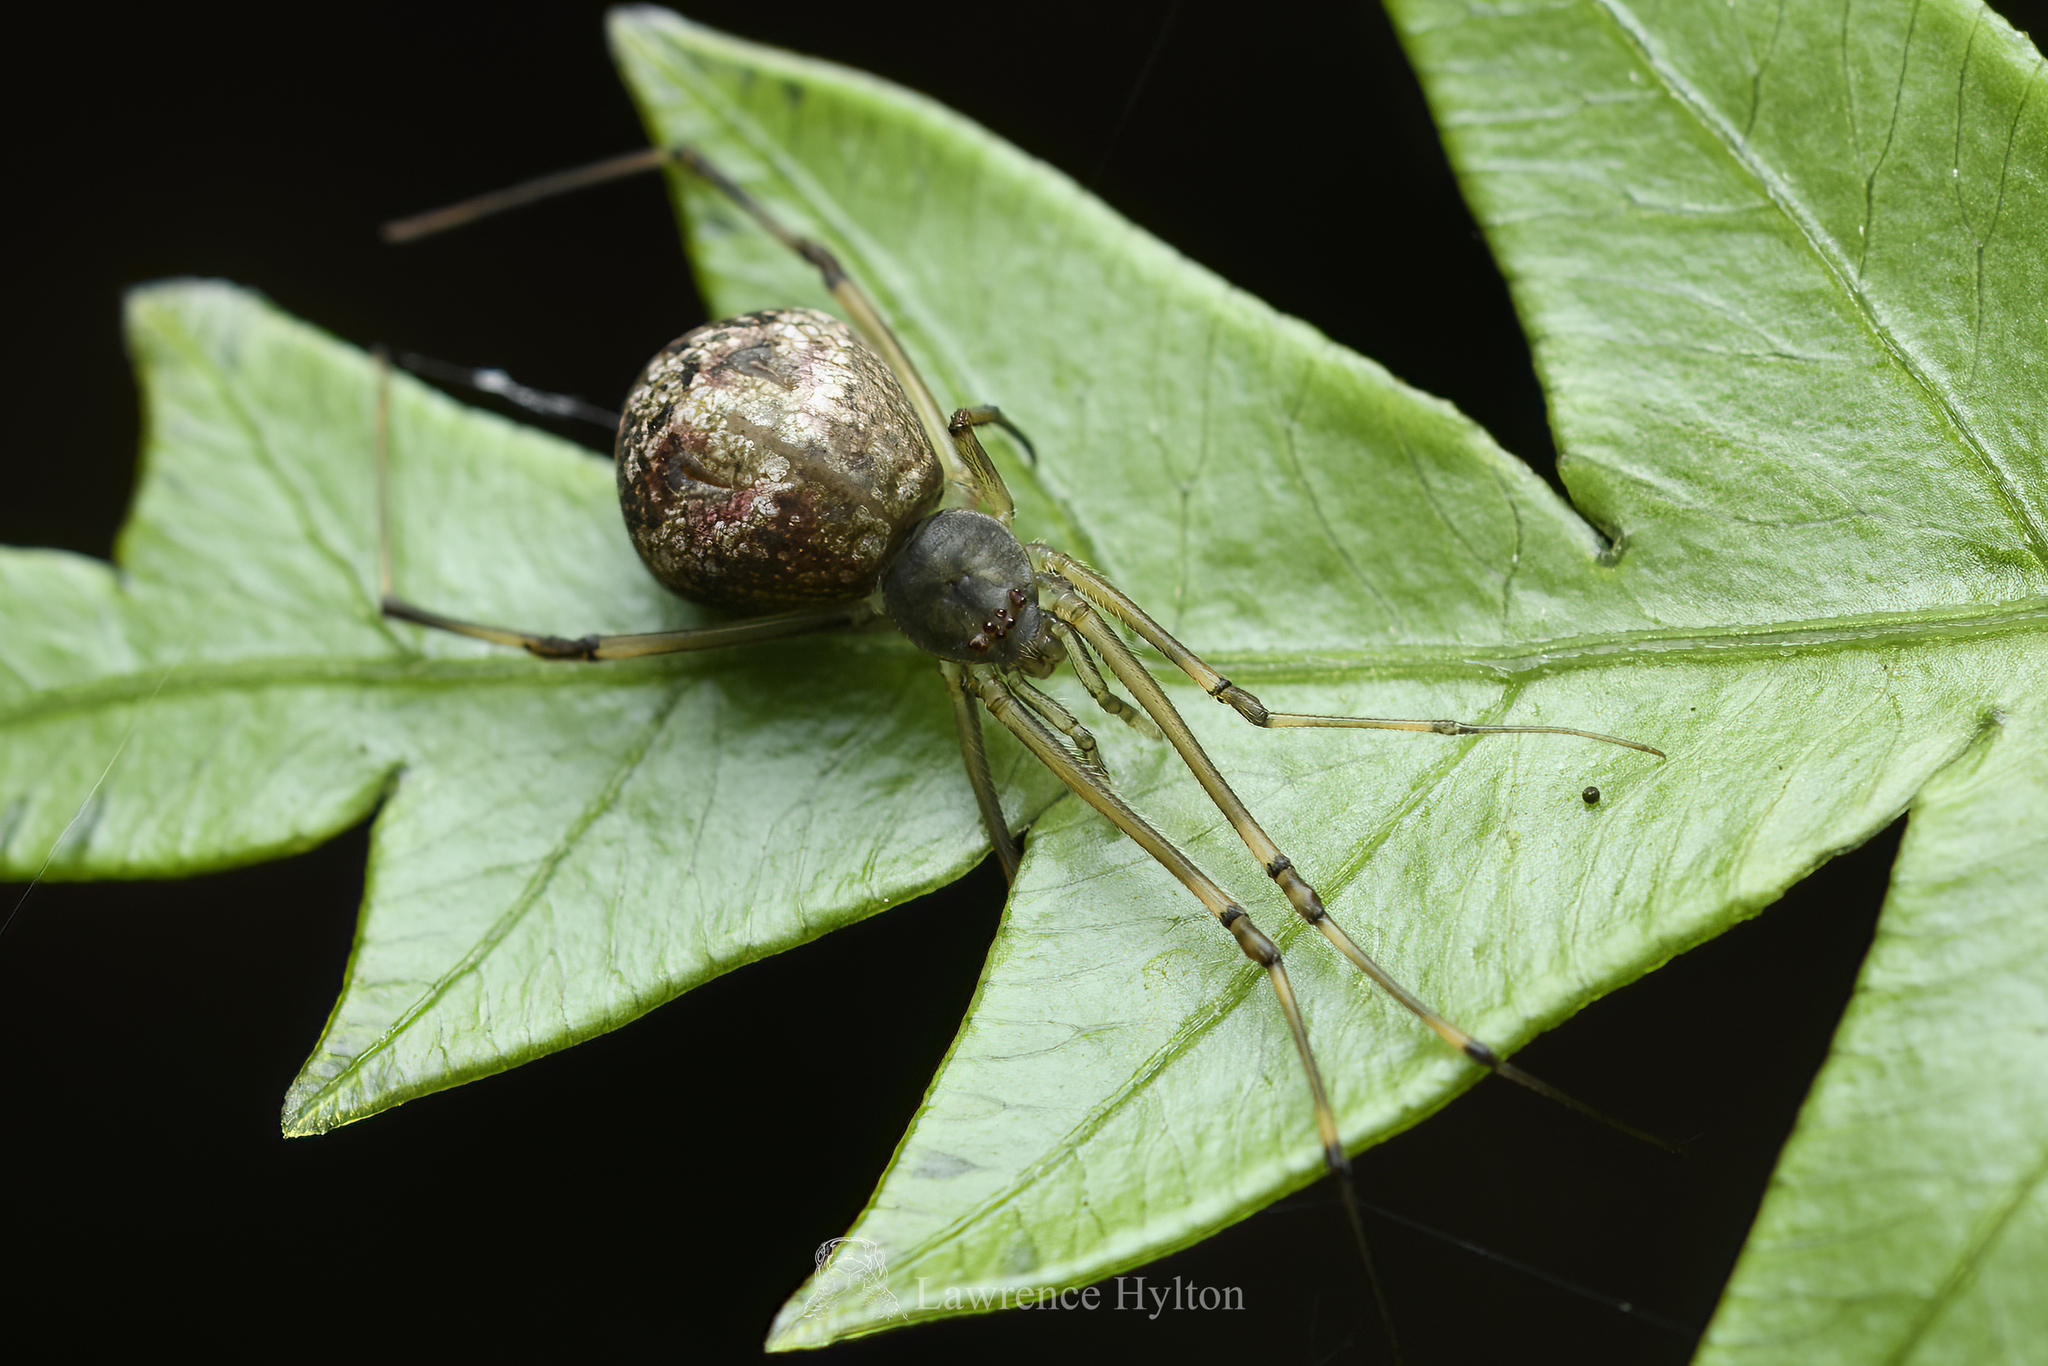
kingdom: Animalia
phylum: Arthropoda
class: Arachnida
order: Araneae
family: Theridiidae
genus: Moneta
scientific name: Moneta mirabilis
